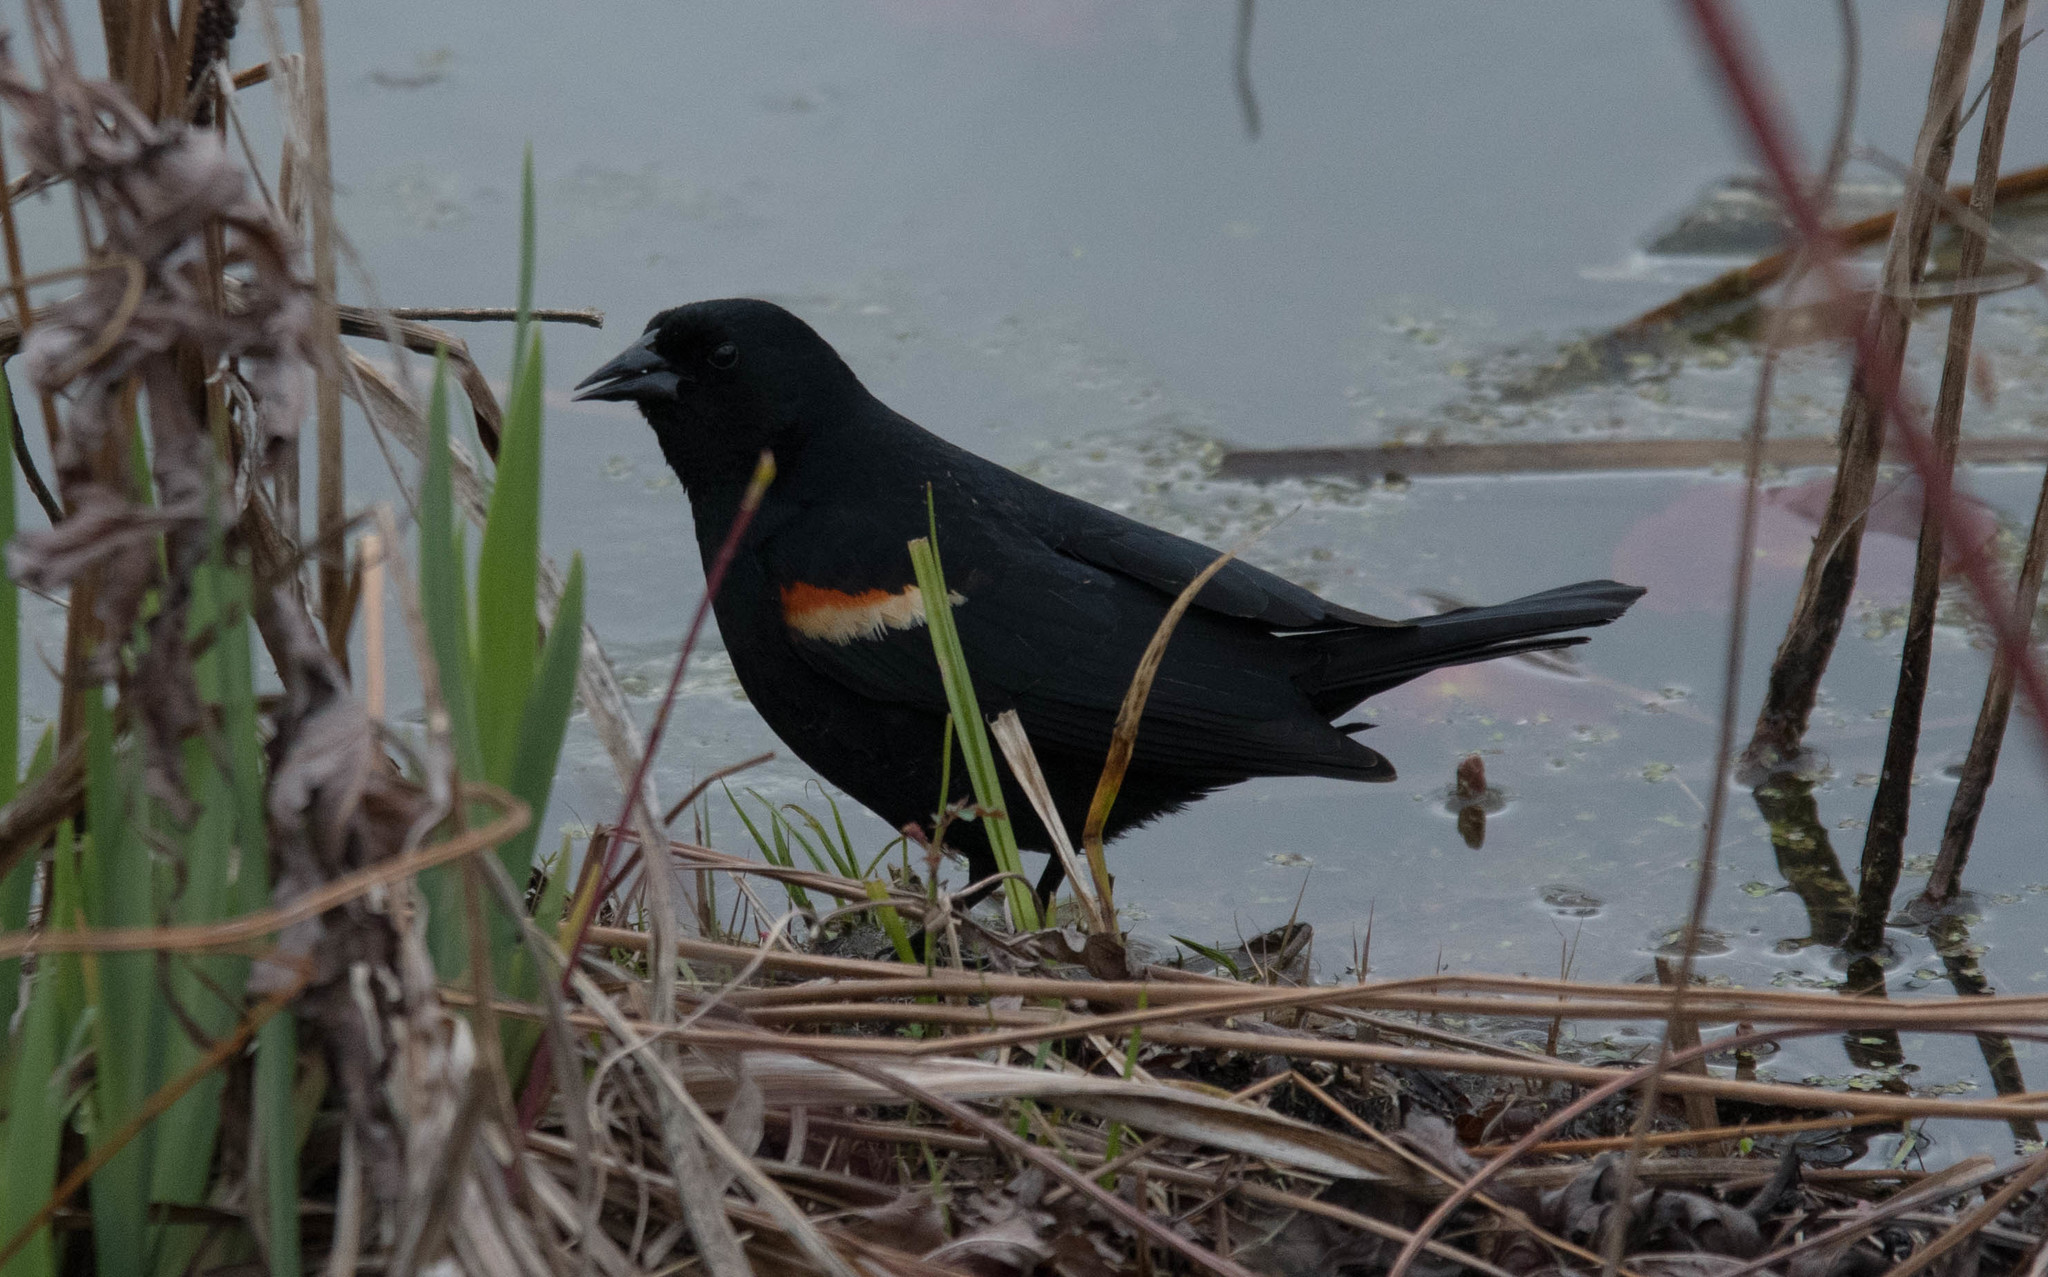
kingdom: Animalia
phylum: Chordata
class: Aves
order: Passeriformes
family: Icteridae
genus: Agelaius
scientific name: Agelaius phoeniceus
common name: Red-winged blackbird
